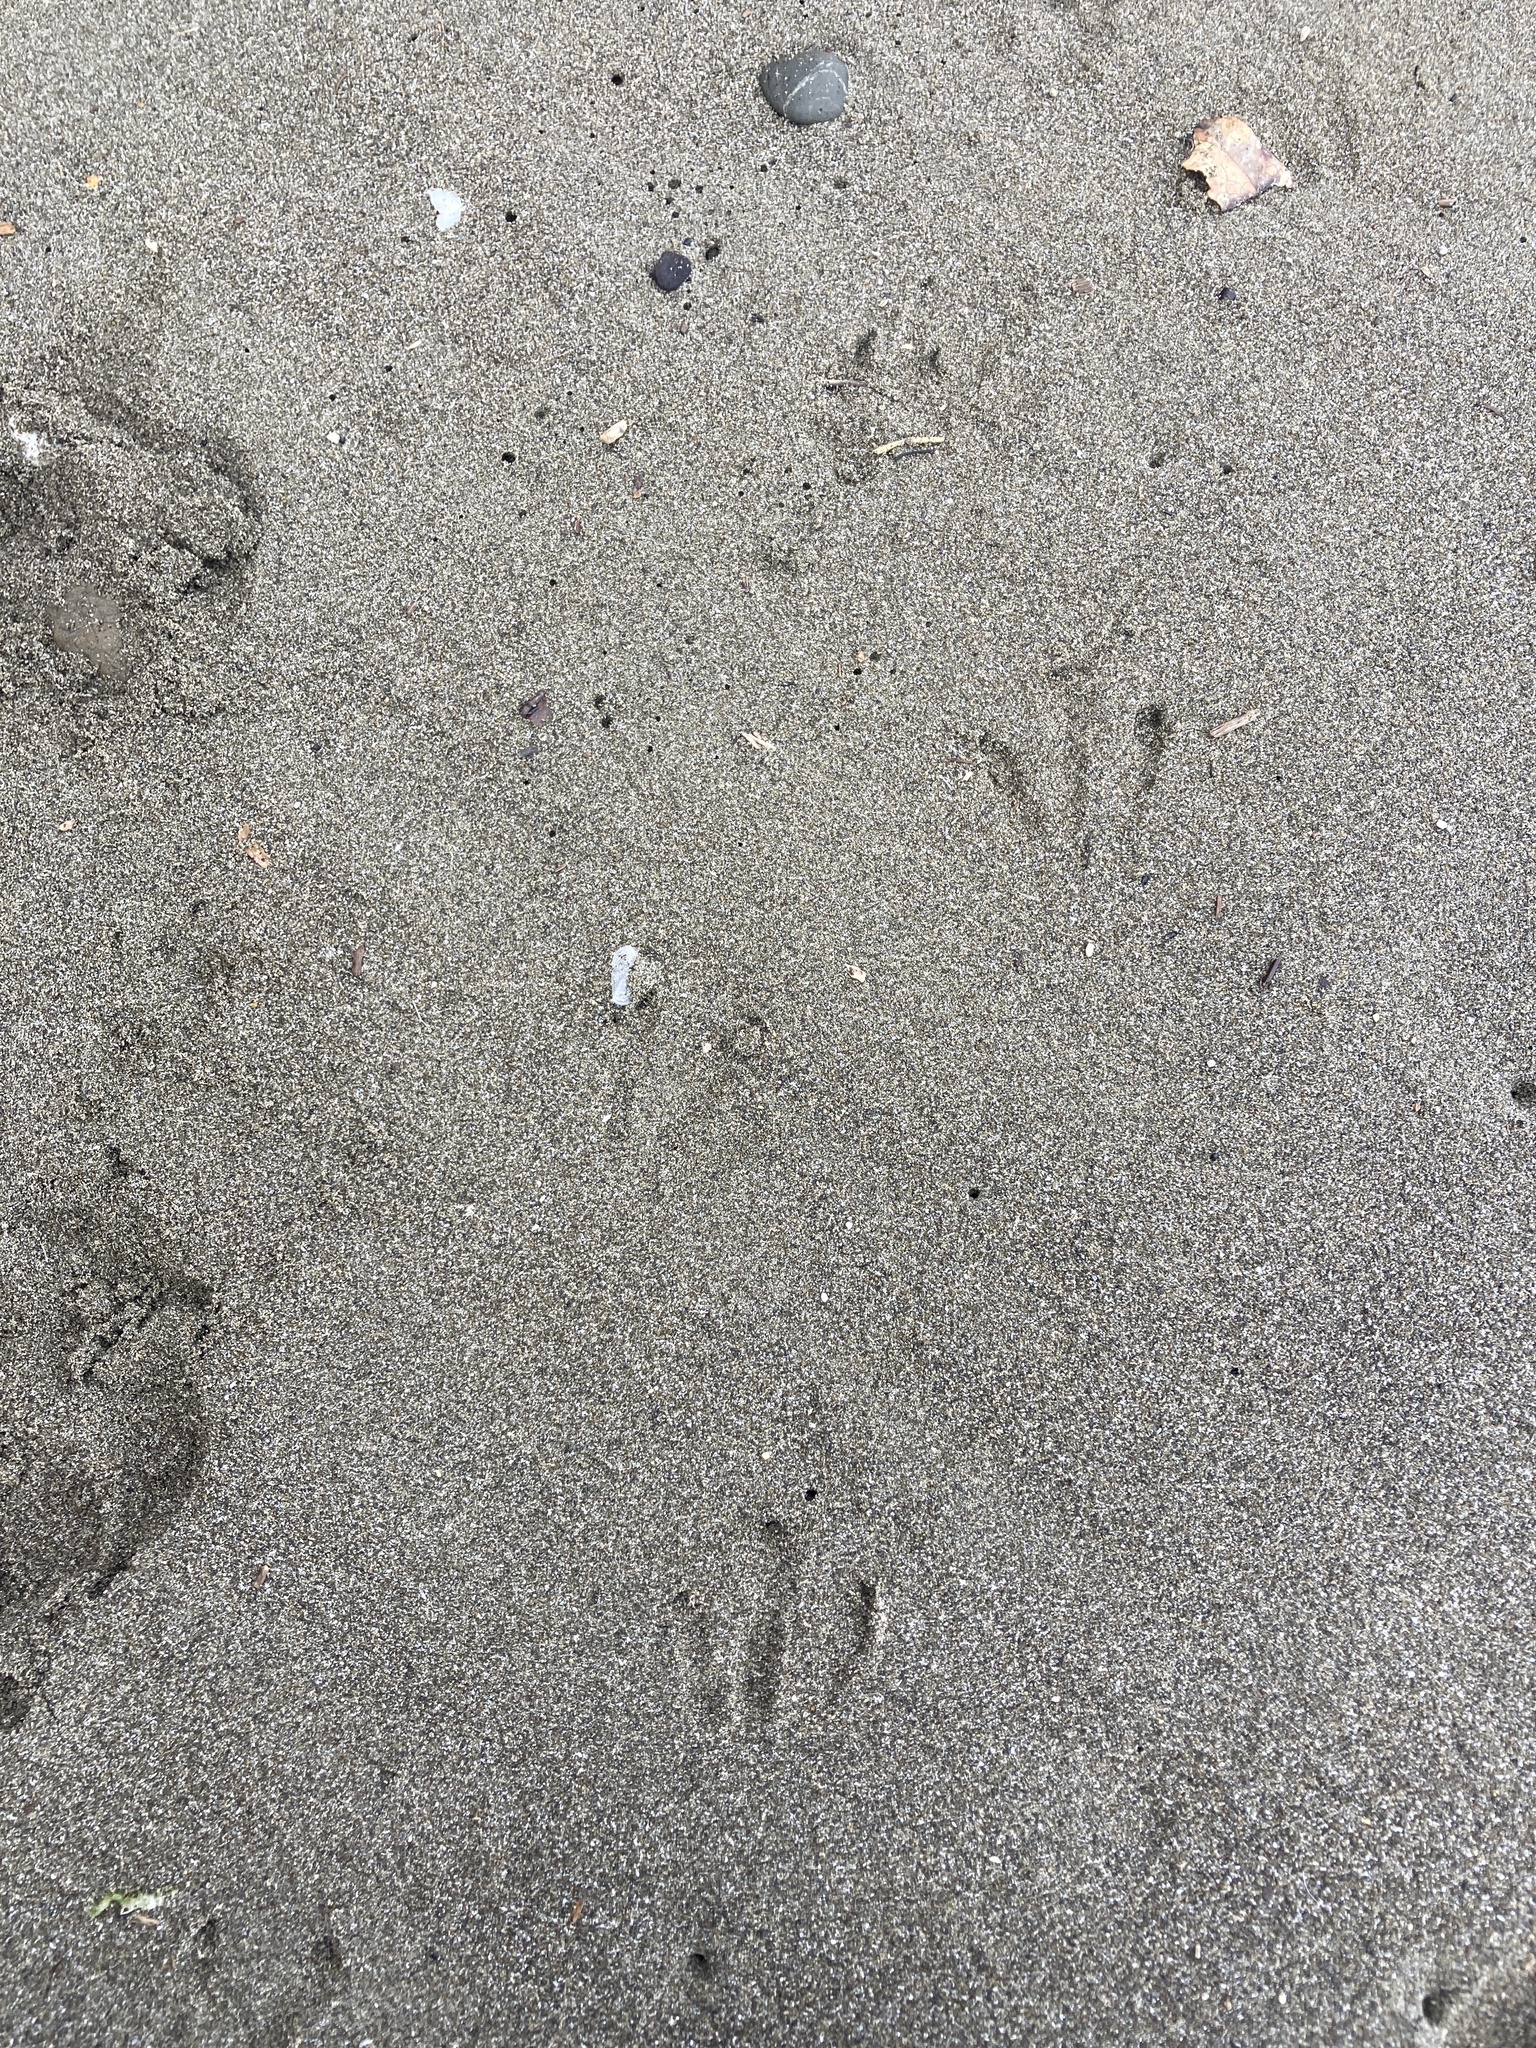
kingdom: Animalia
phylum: Chordata
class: Aves
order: Sphenisciformes
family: Spheniscidae
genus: Eudyptula
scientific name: Eudyptula minor
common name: Little penguin
